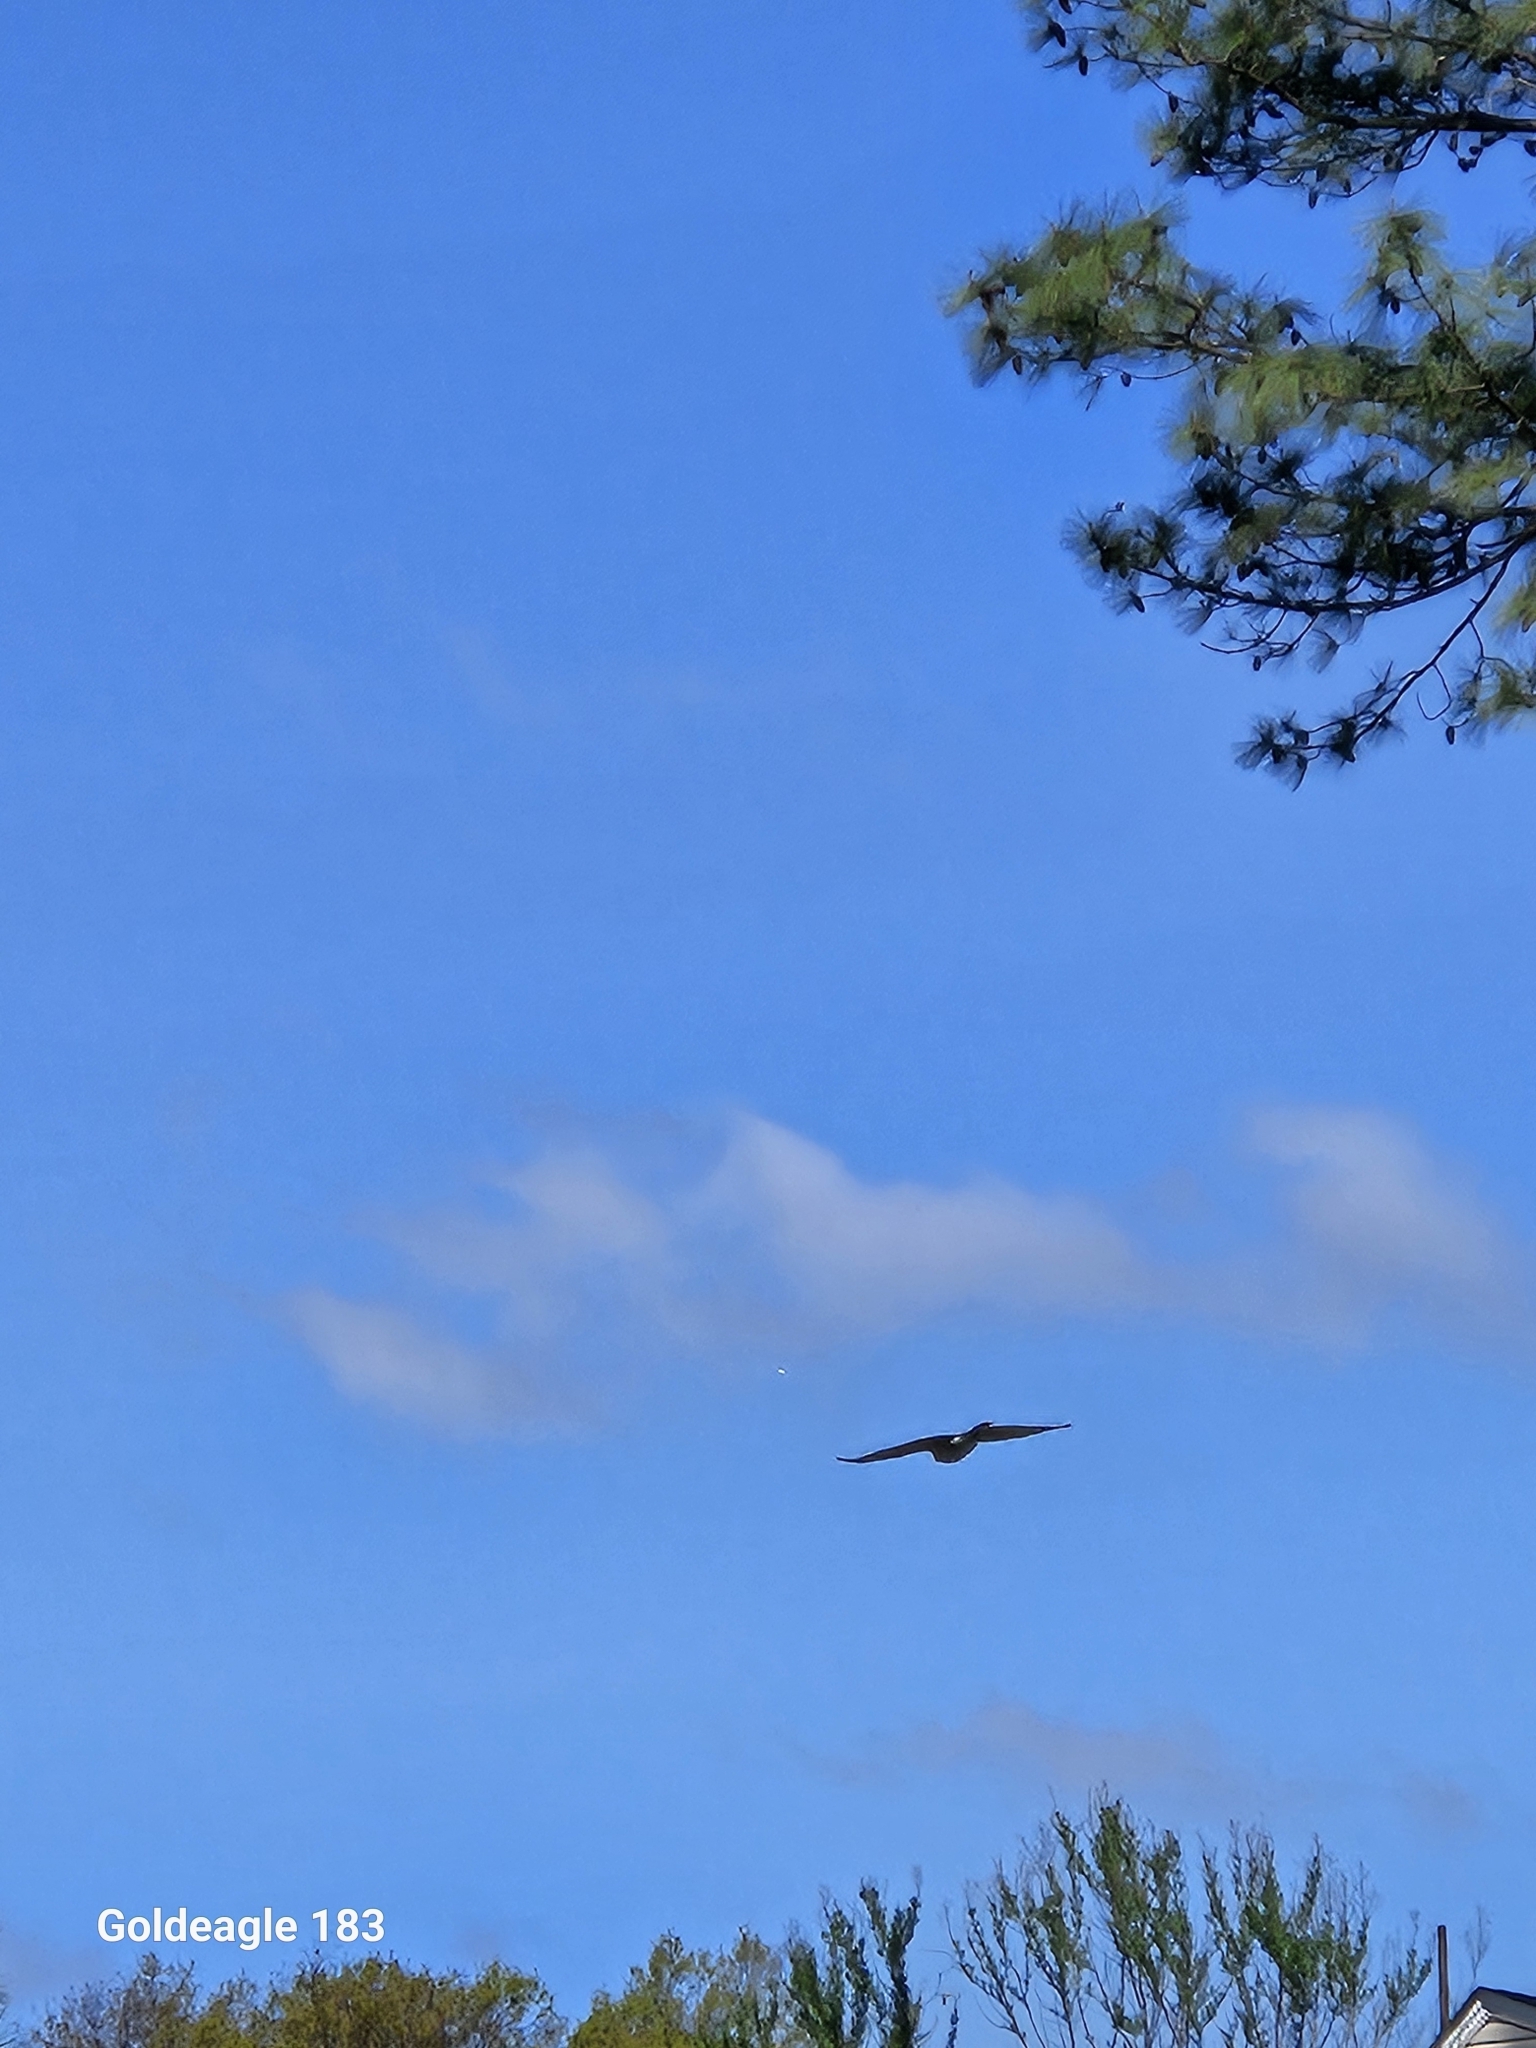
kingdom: Animalia
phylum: Chordata
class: Aves
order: Accipitriformes
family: Accipitridae
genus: Accipiter
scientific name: Accipiter cooperii
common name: Cooper's hawk
